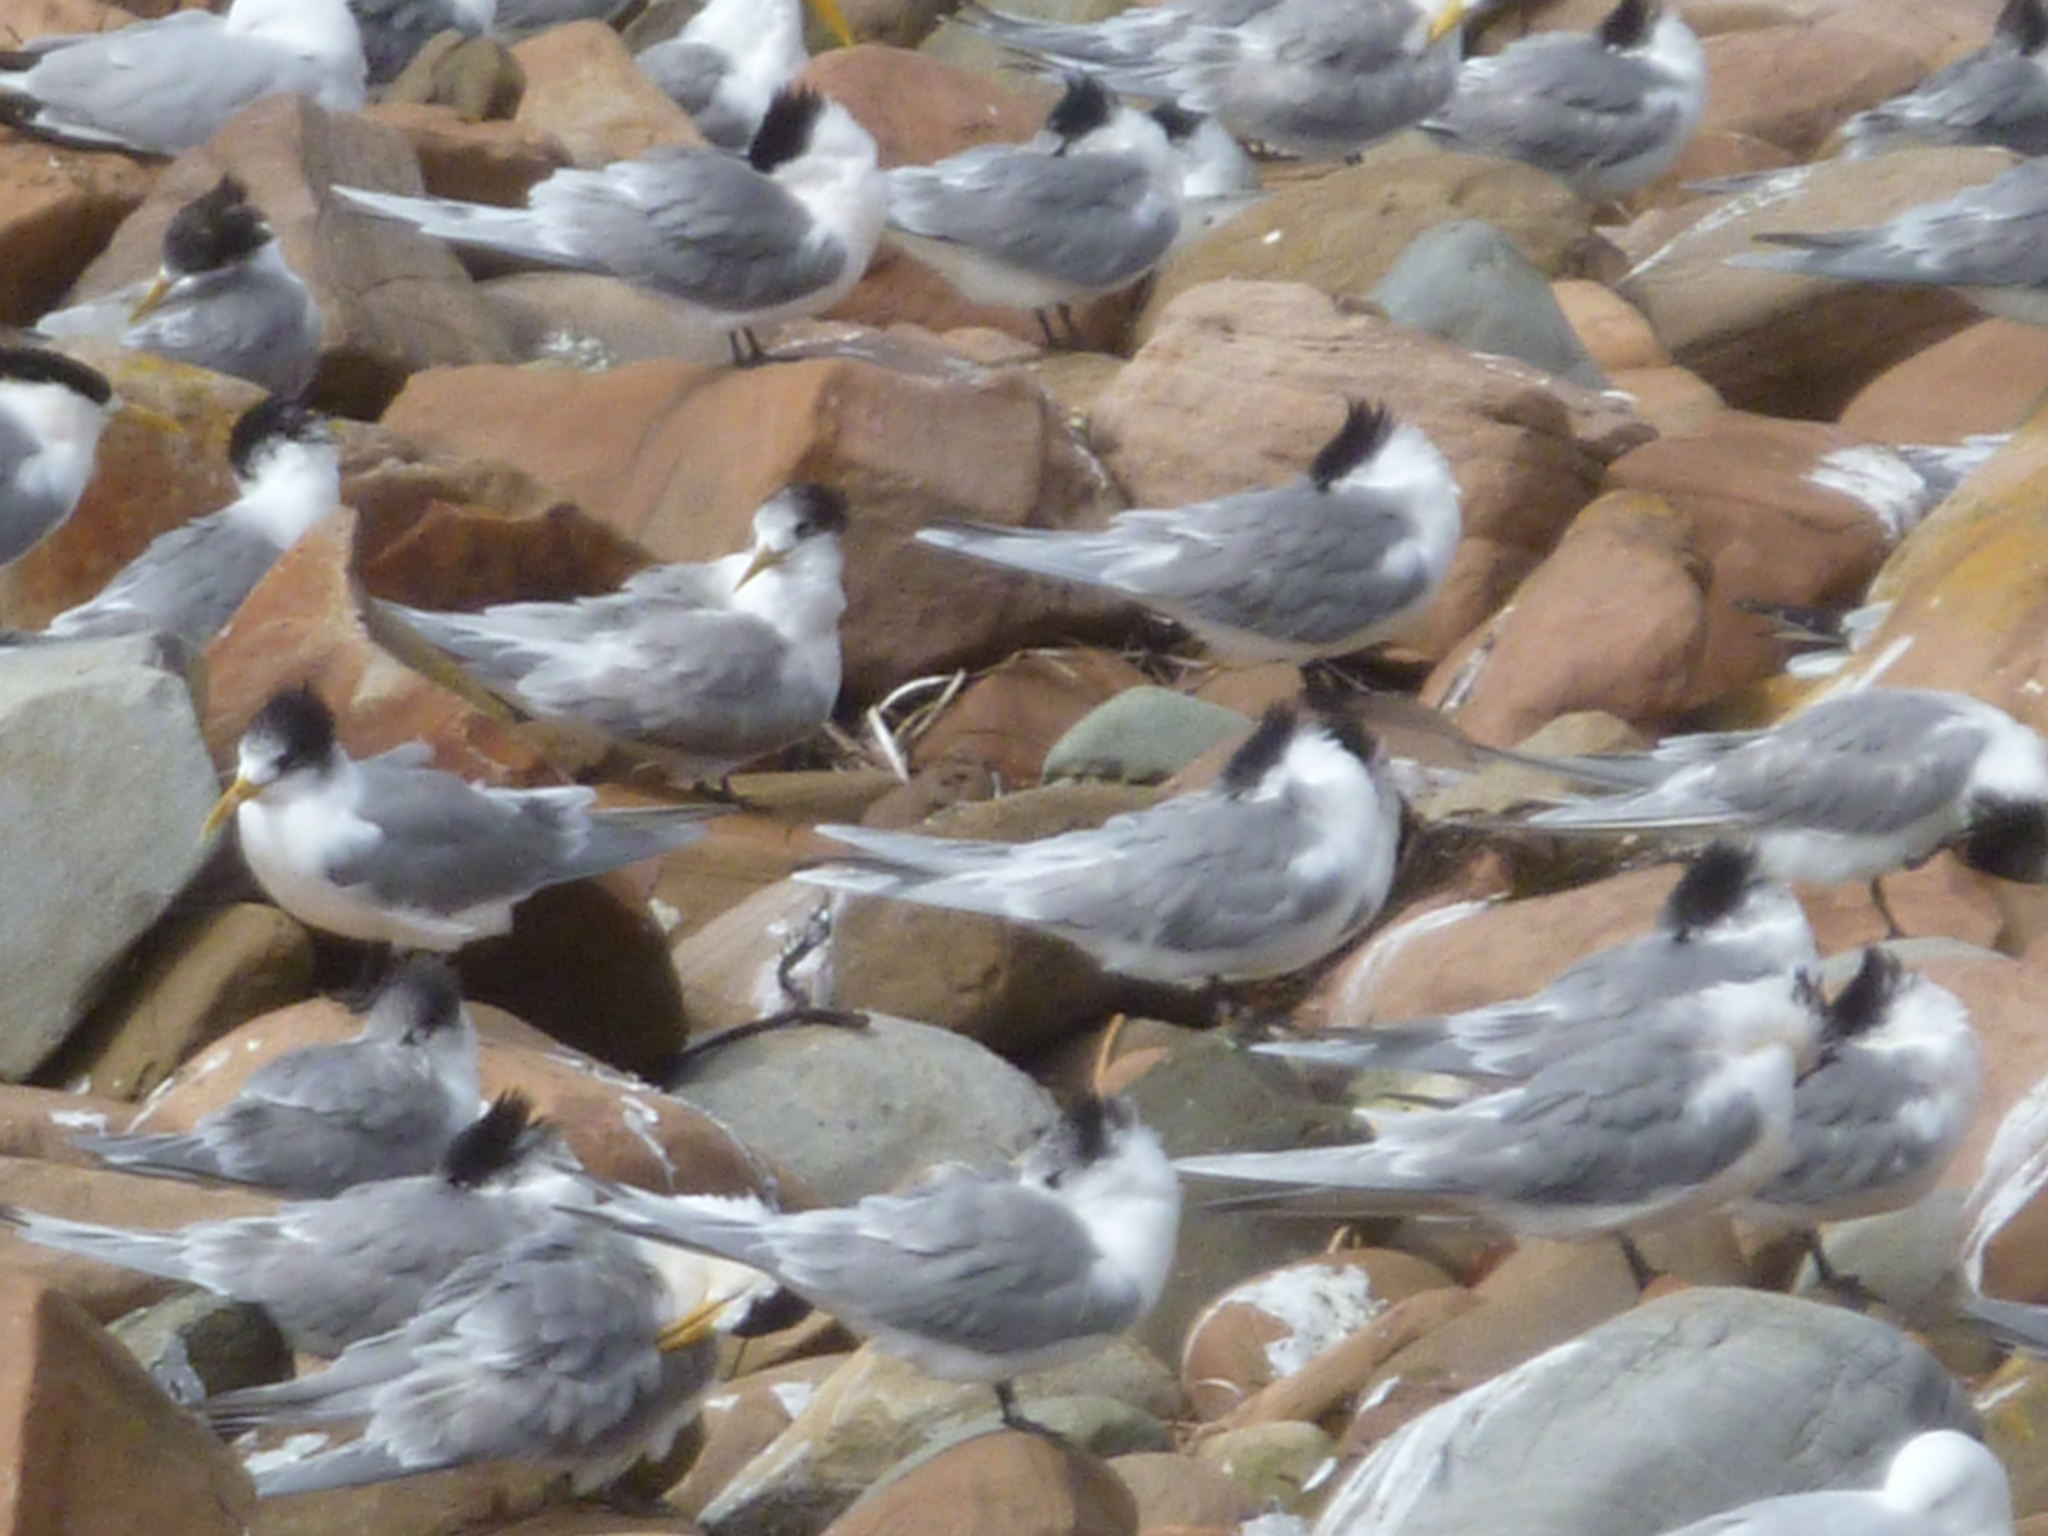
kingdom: Animalia
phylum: Chordata
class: Aves
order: Charadriiformes
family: Laridae
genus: Thalasseus
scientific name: Thalasseus bergii
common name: Greater crested tern
